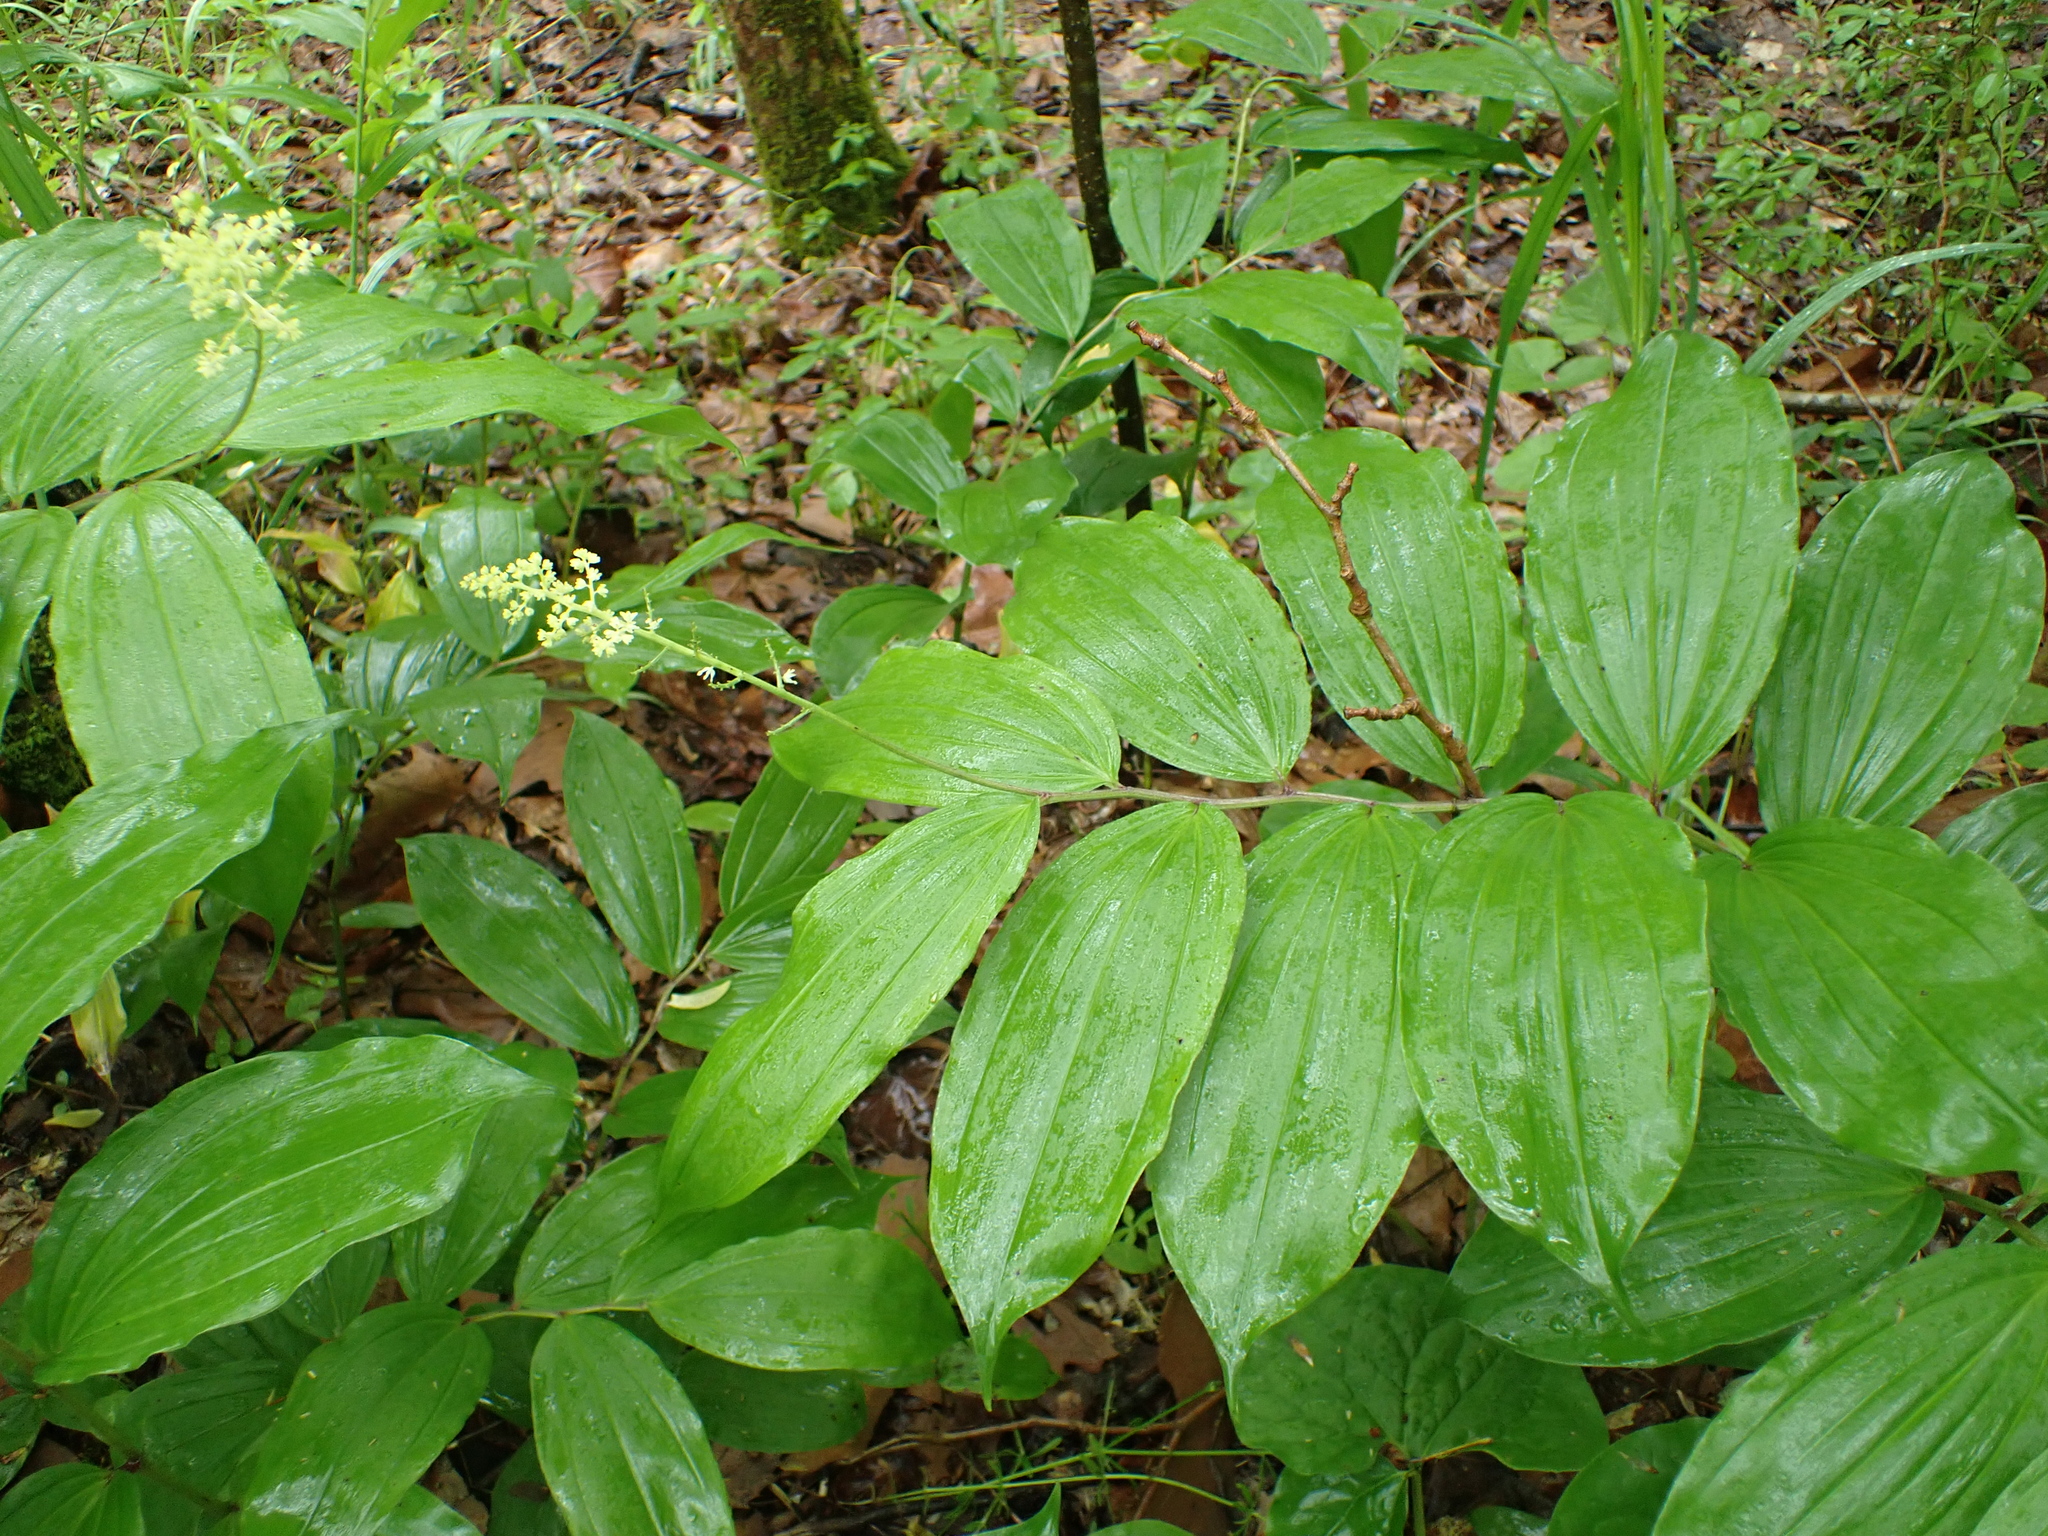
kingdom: Plantae
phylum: Tracheophyta
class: Liliopsida
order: Asparagales
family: Asparagaceae
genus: Maianthemum
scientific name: Maianthemum racemosum
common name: False spikenard
